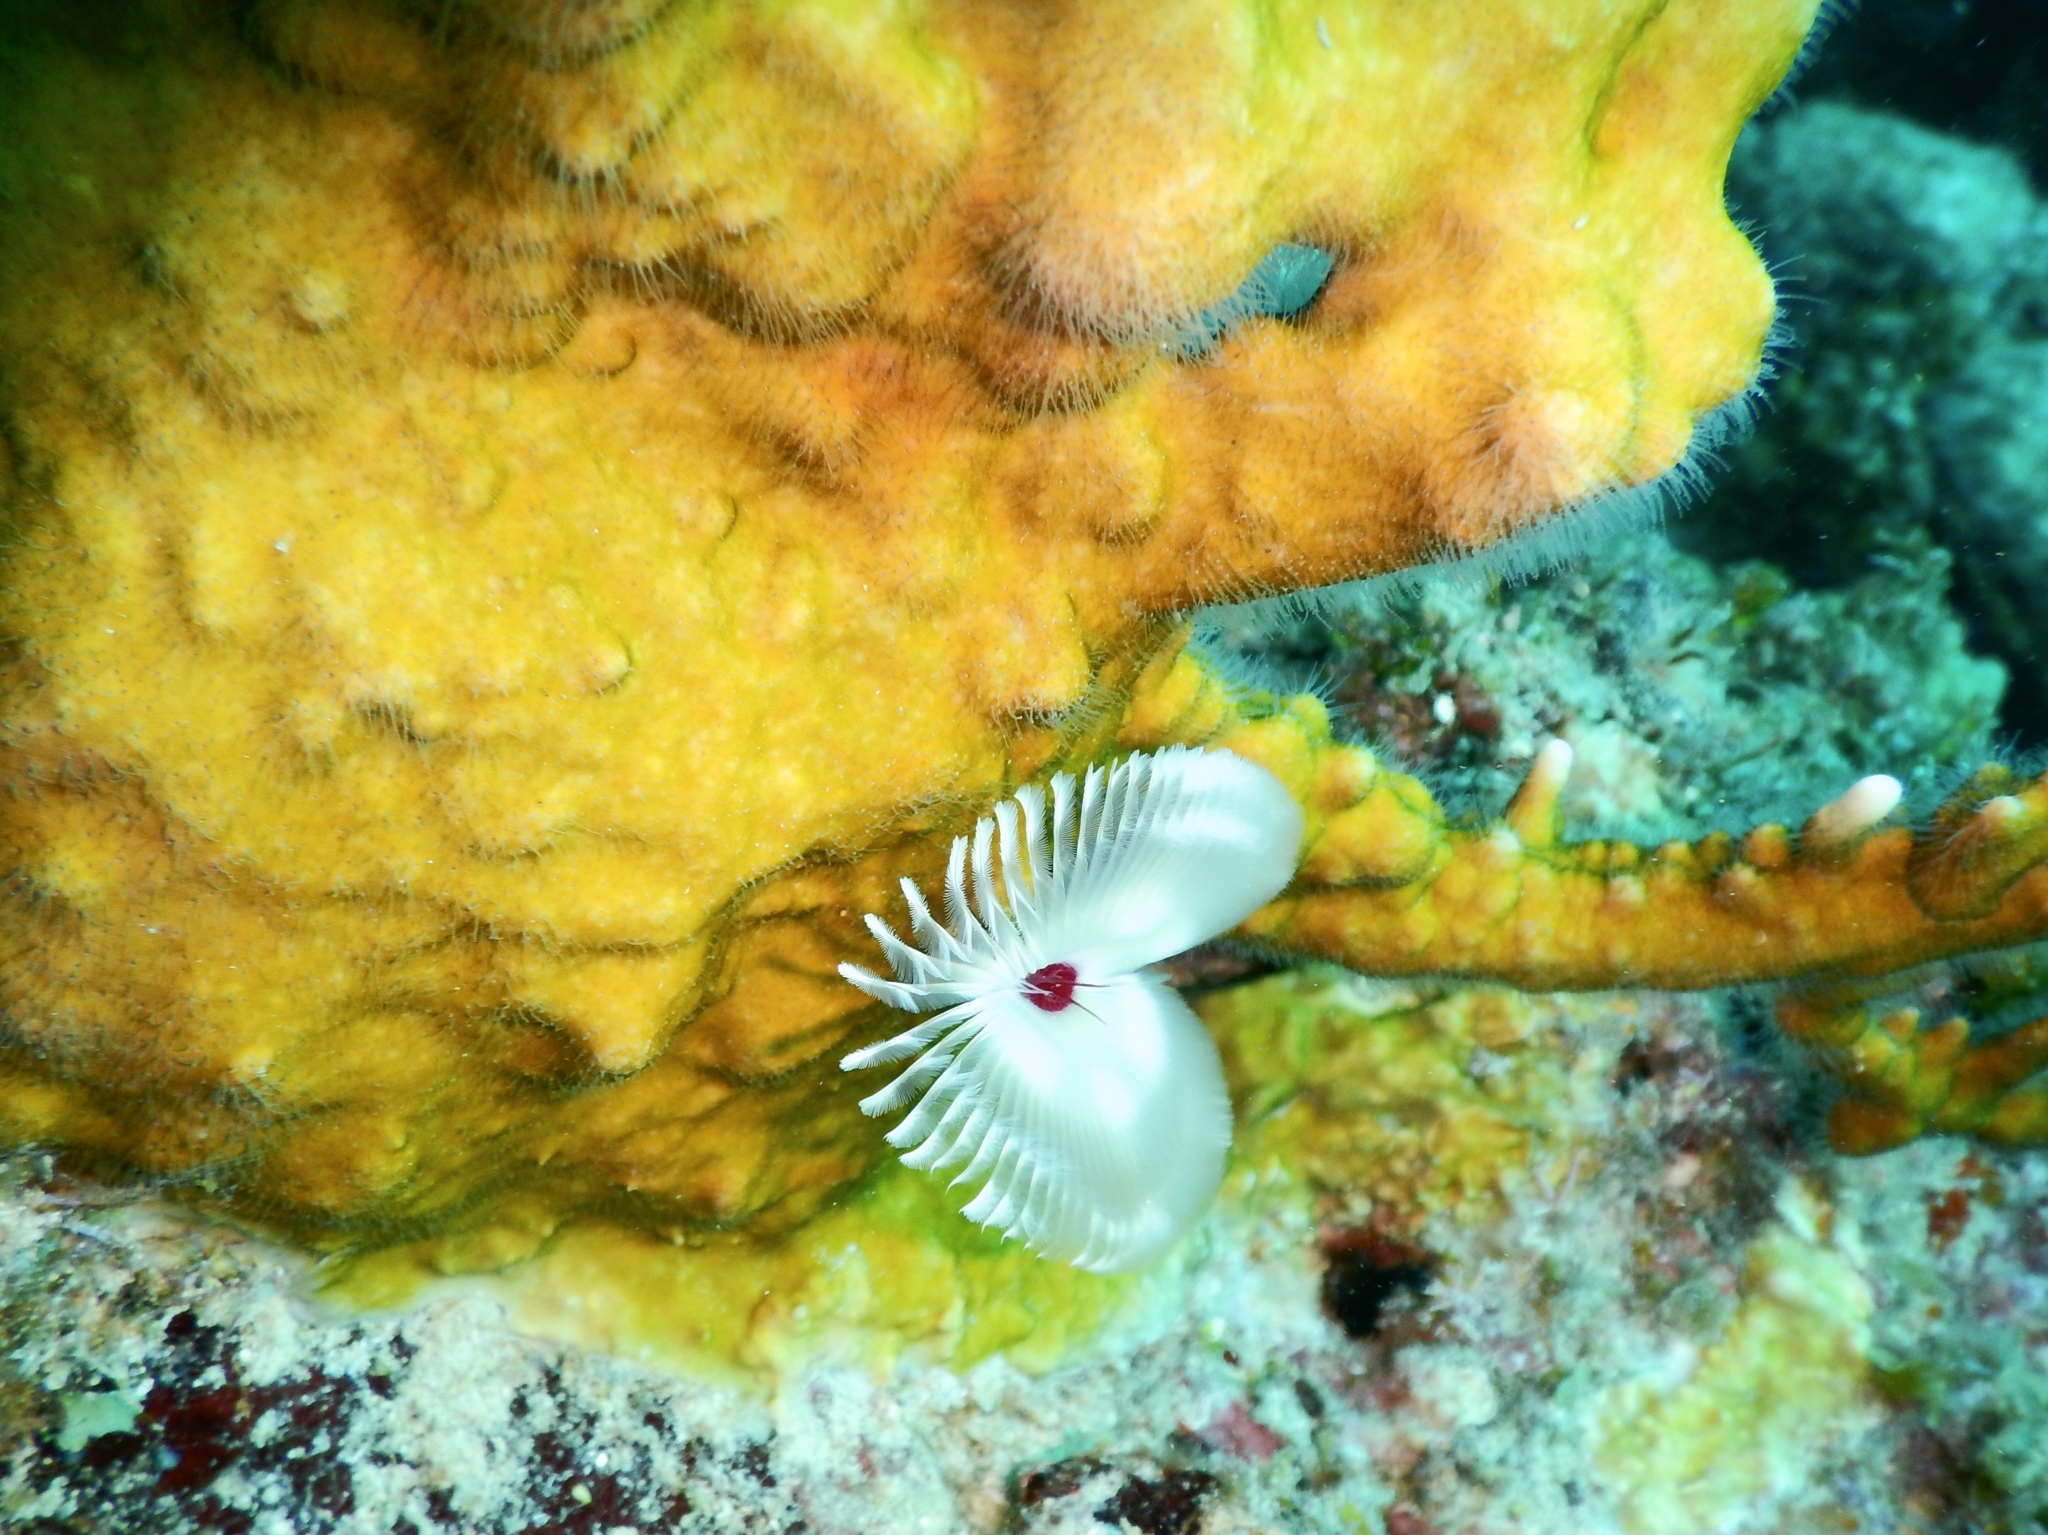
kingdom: Animalia
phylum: Annelida
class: Polychaeta
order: Sabellida
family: Sabellidae
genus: Anamobaea
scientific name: Anamobaea orstedii
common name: Split-crown feather duster
